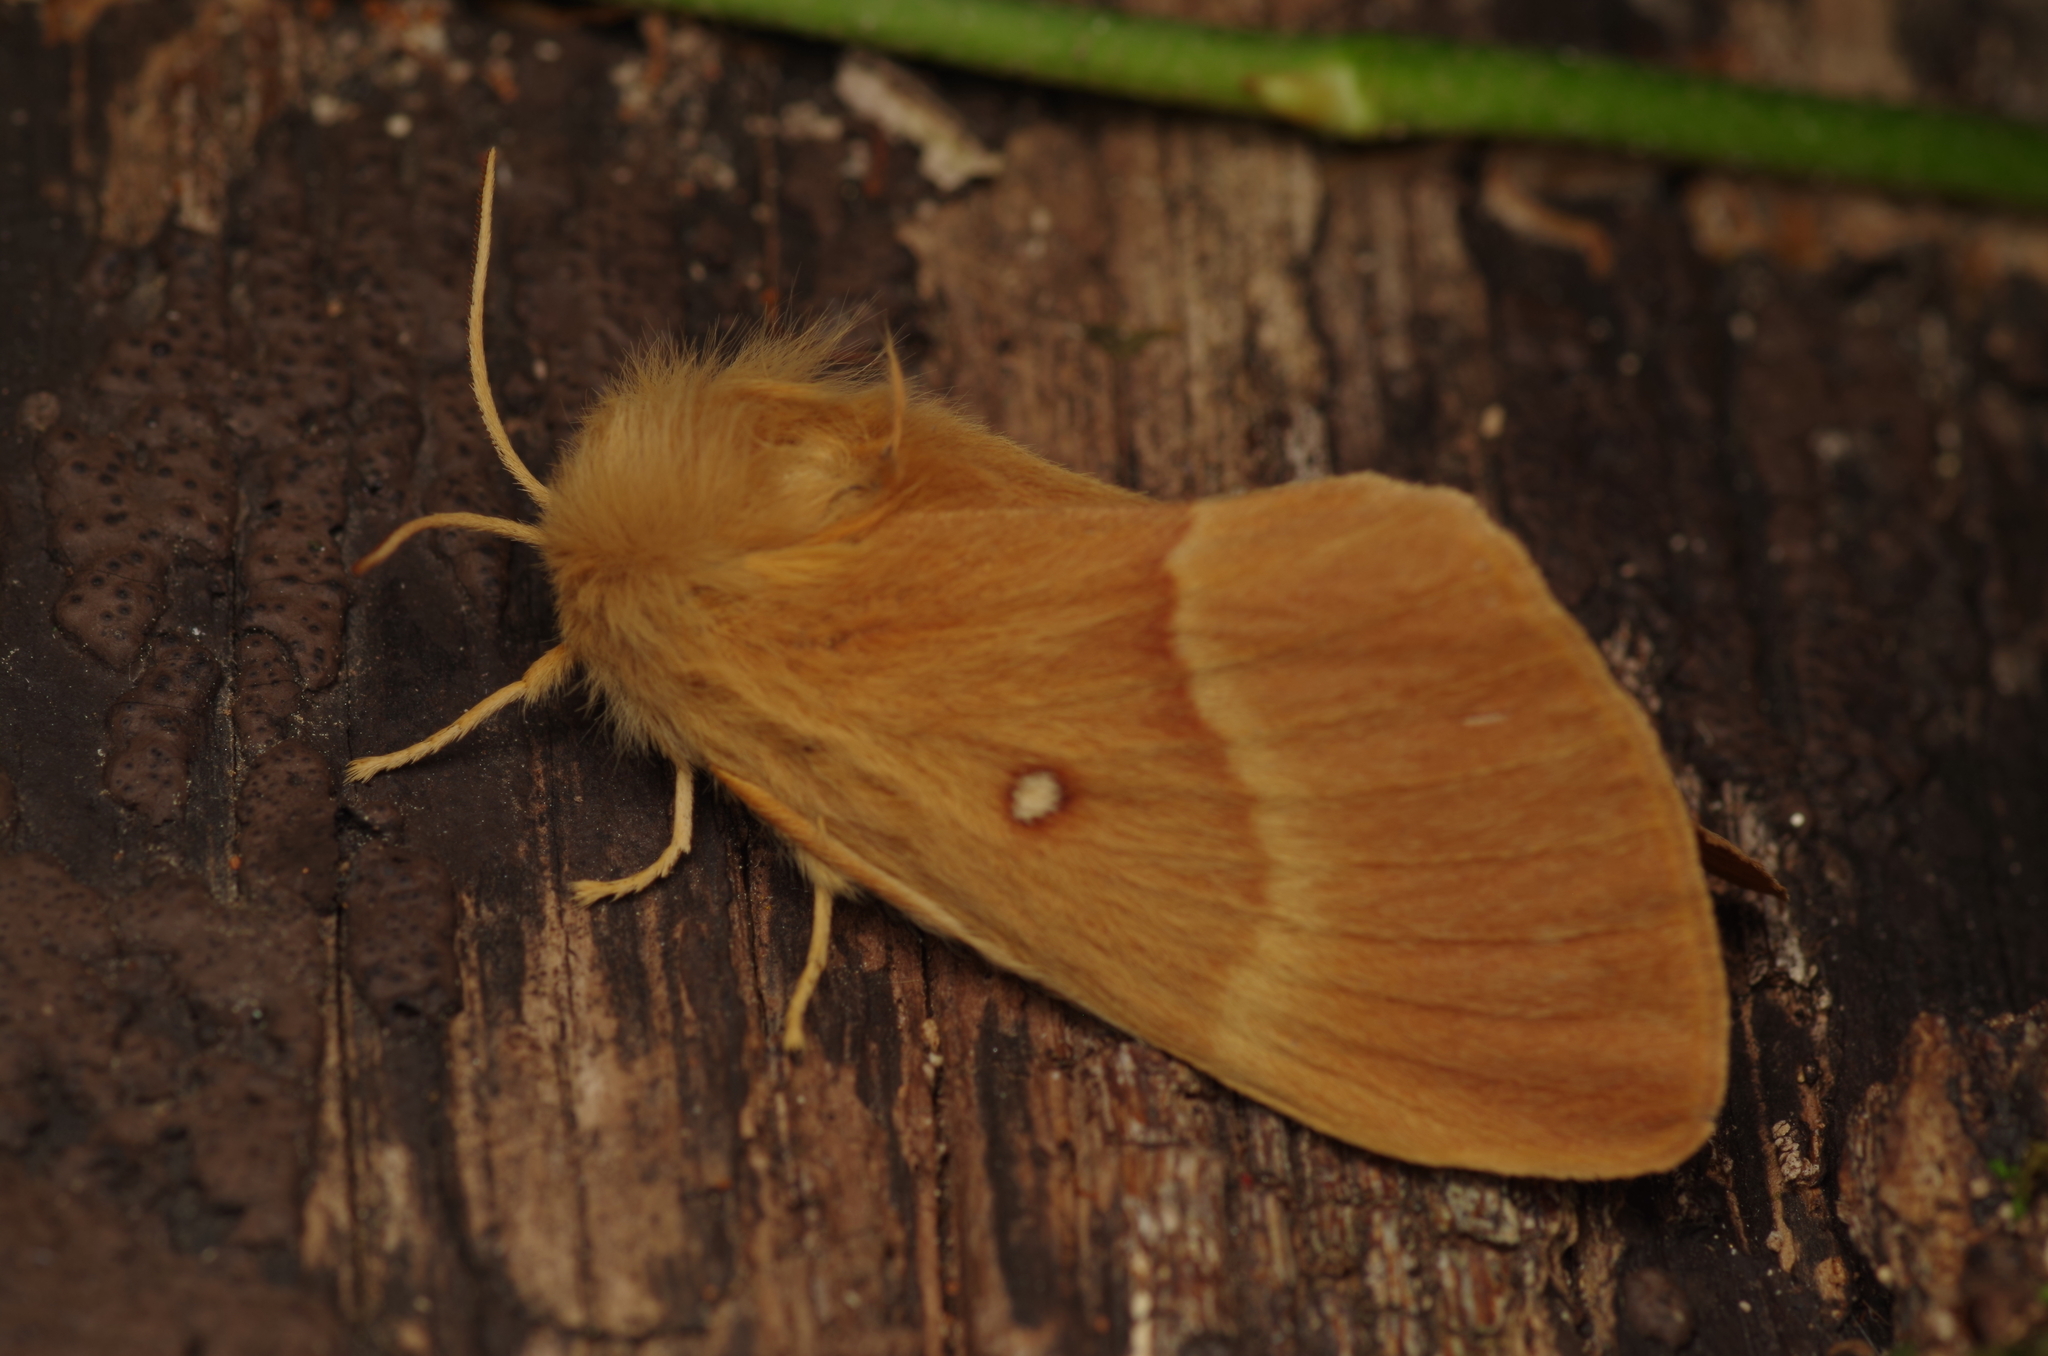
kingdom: Animalia
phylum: Arthropoda
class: Insecta
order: Lepidoptera
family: Lasiocampidae
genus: Lasiocampa
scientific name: Lasiocampa quercus
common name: Oak eggar
